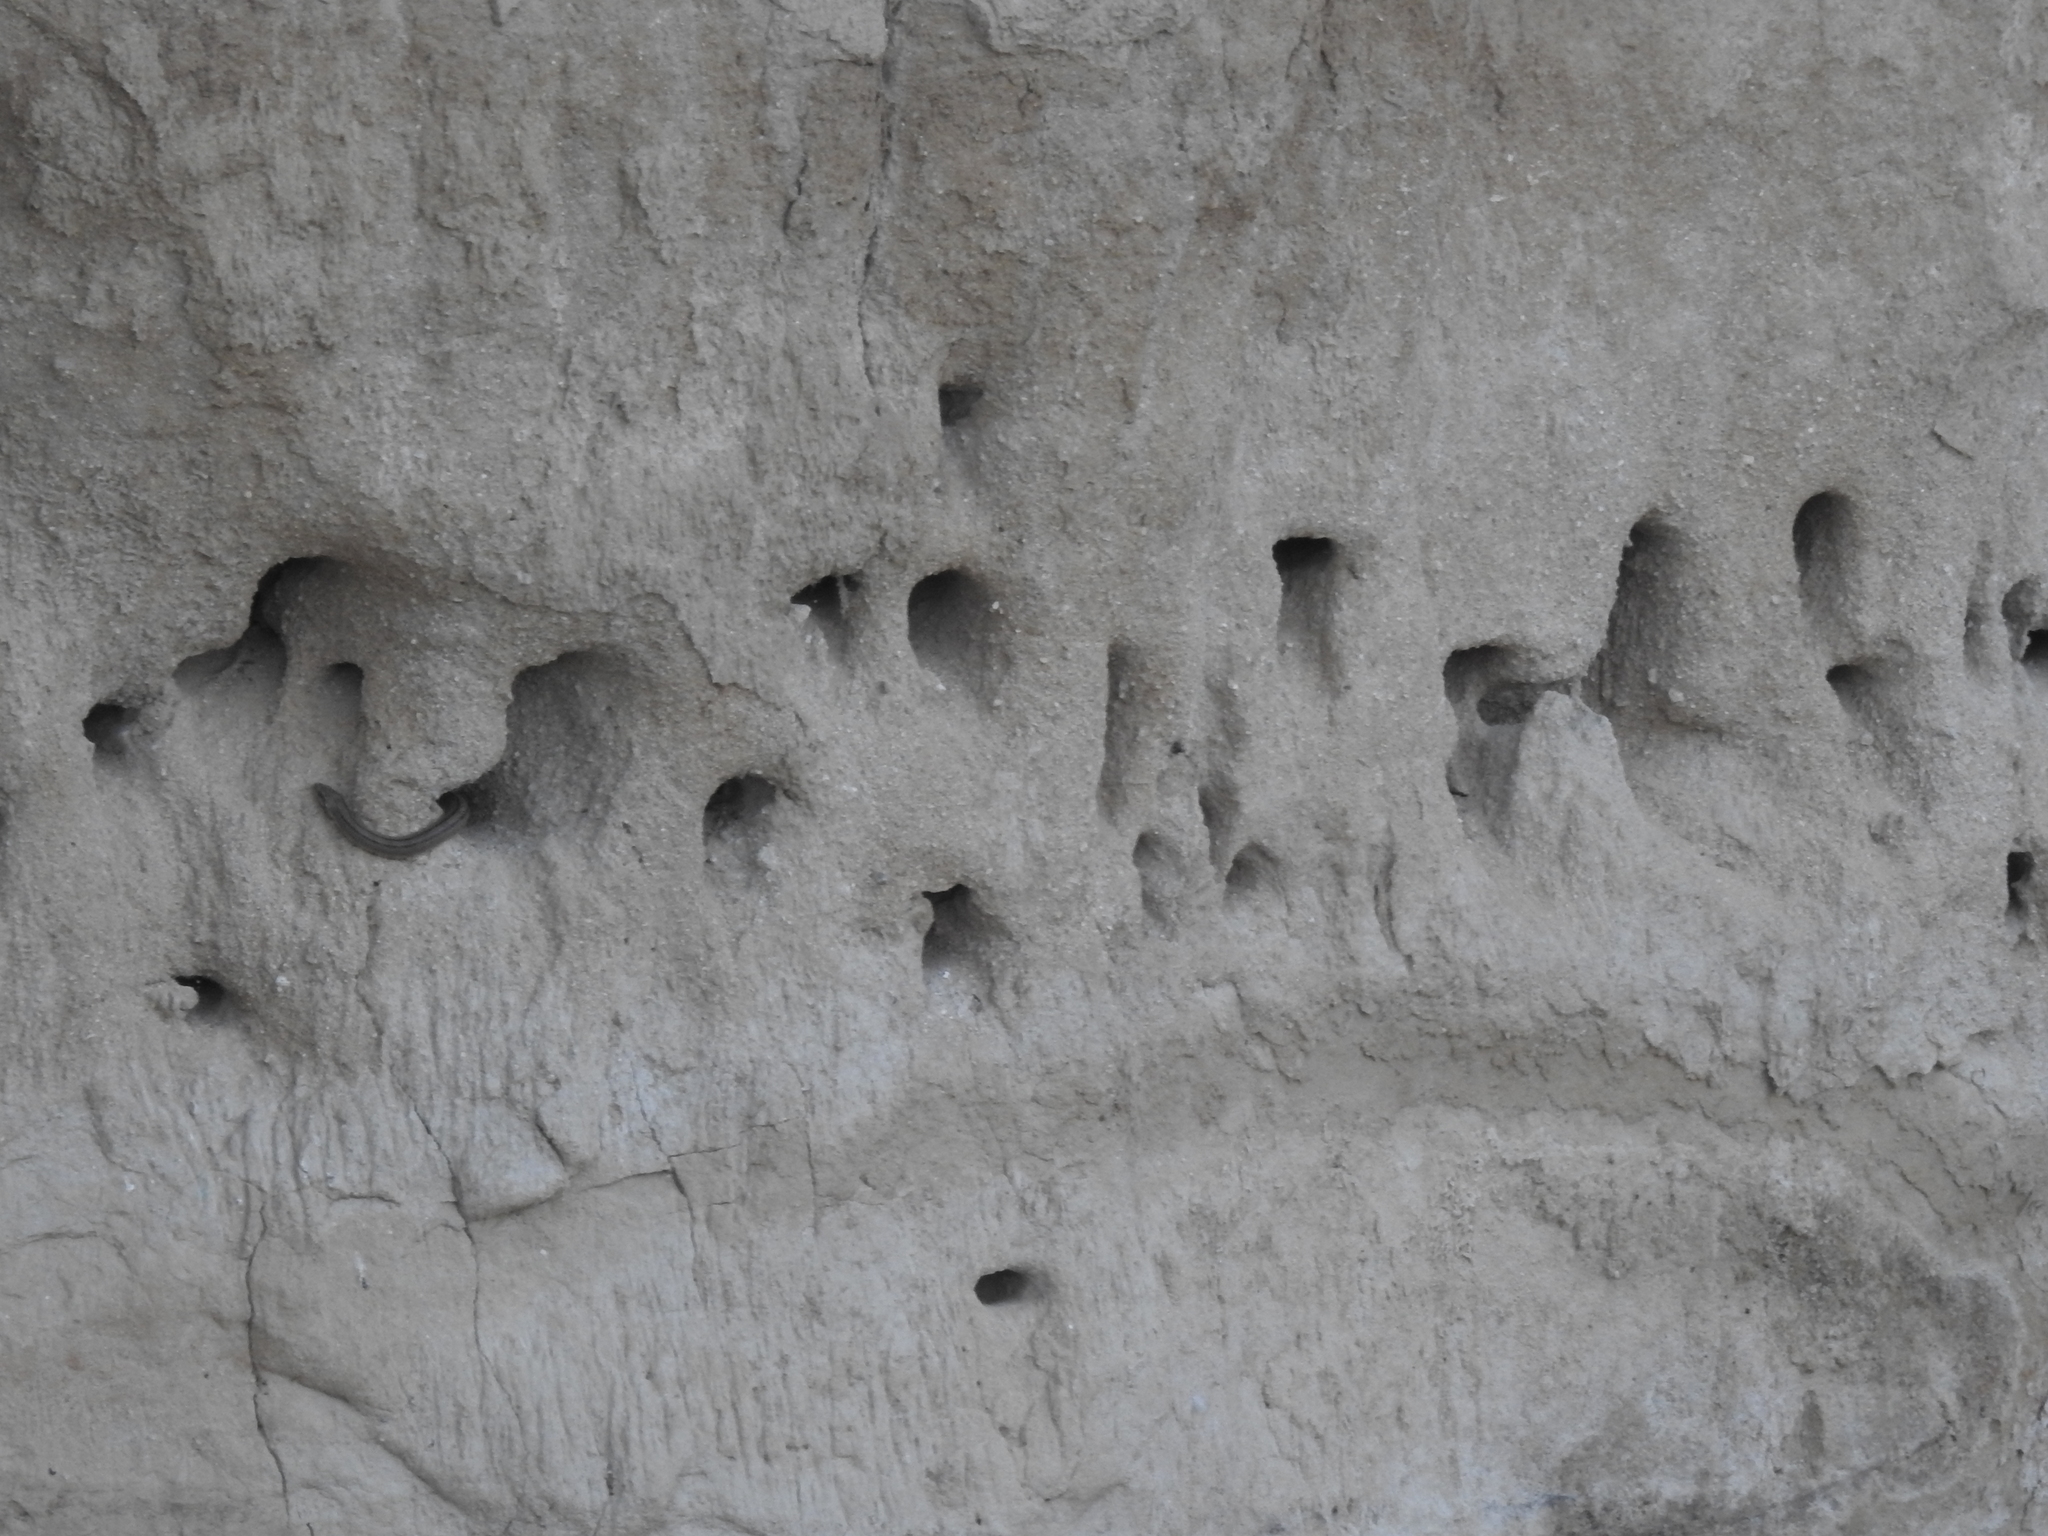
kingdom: Animalia
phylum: Chordata
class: Squamata
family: Colubridae
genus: Zamenis
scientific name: Zamenis scalaris
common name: Ladder snakes
